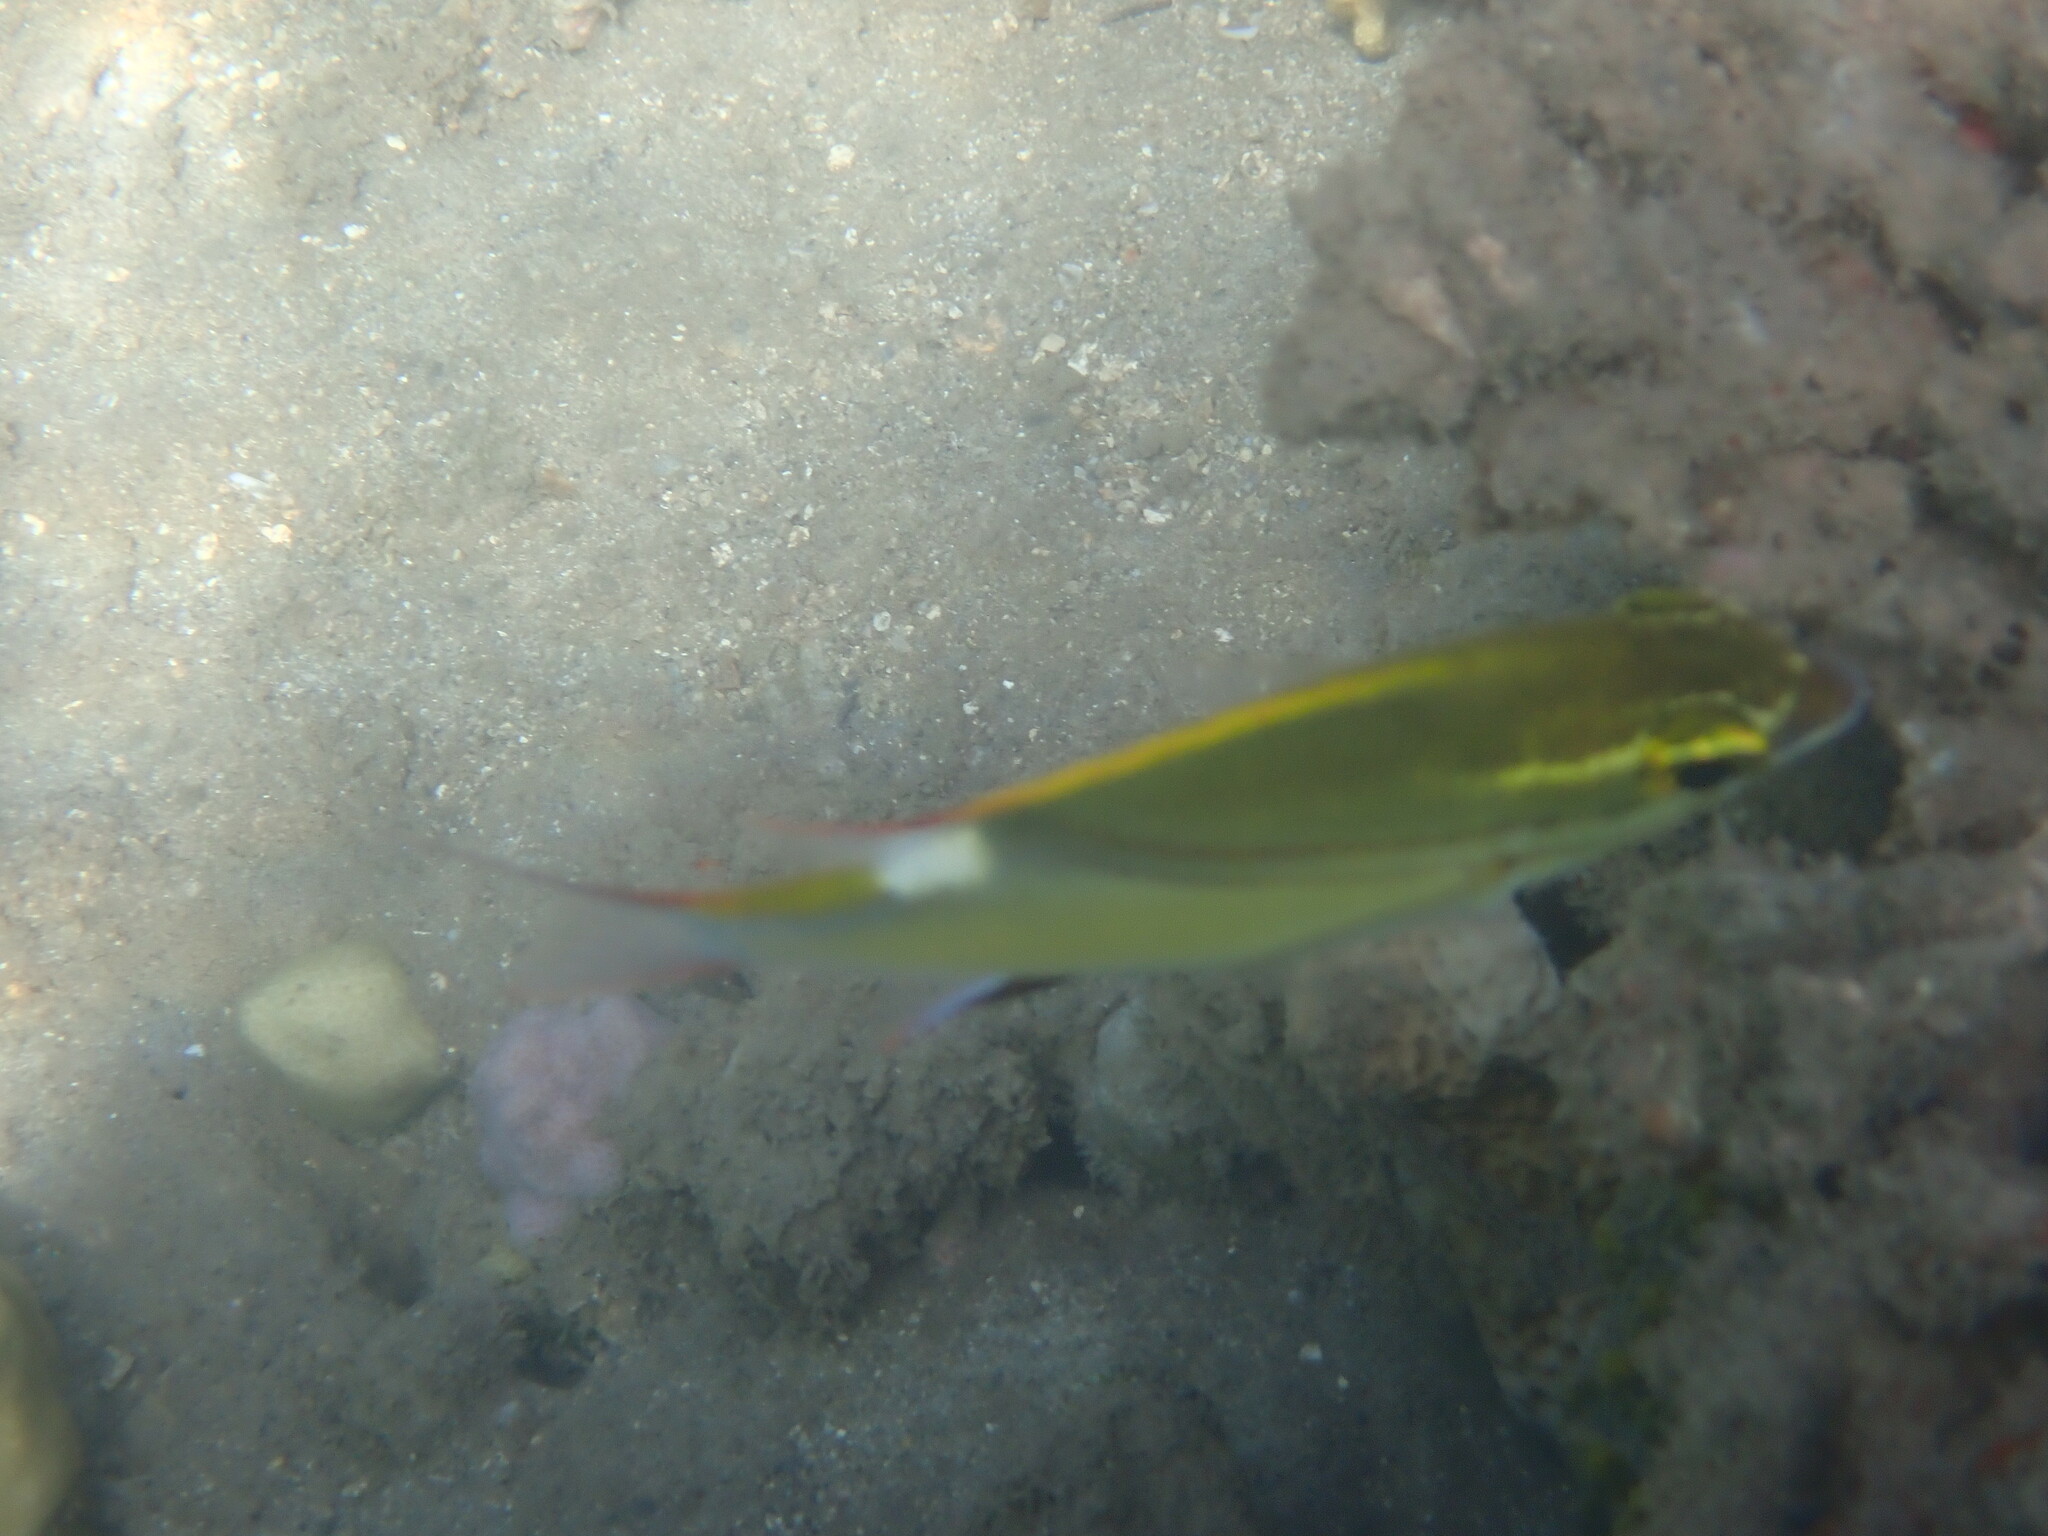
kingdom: Animalia
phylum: Chordata
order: Perciformes
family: Nemipteridae
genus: Scolopsis
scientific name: Scolopsis bilineata
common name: Two-lined monocle bream
